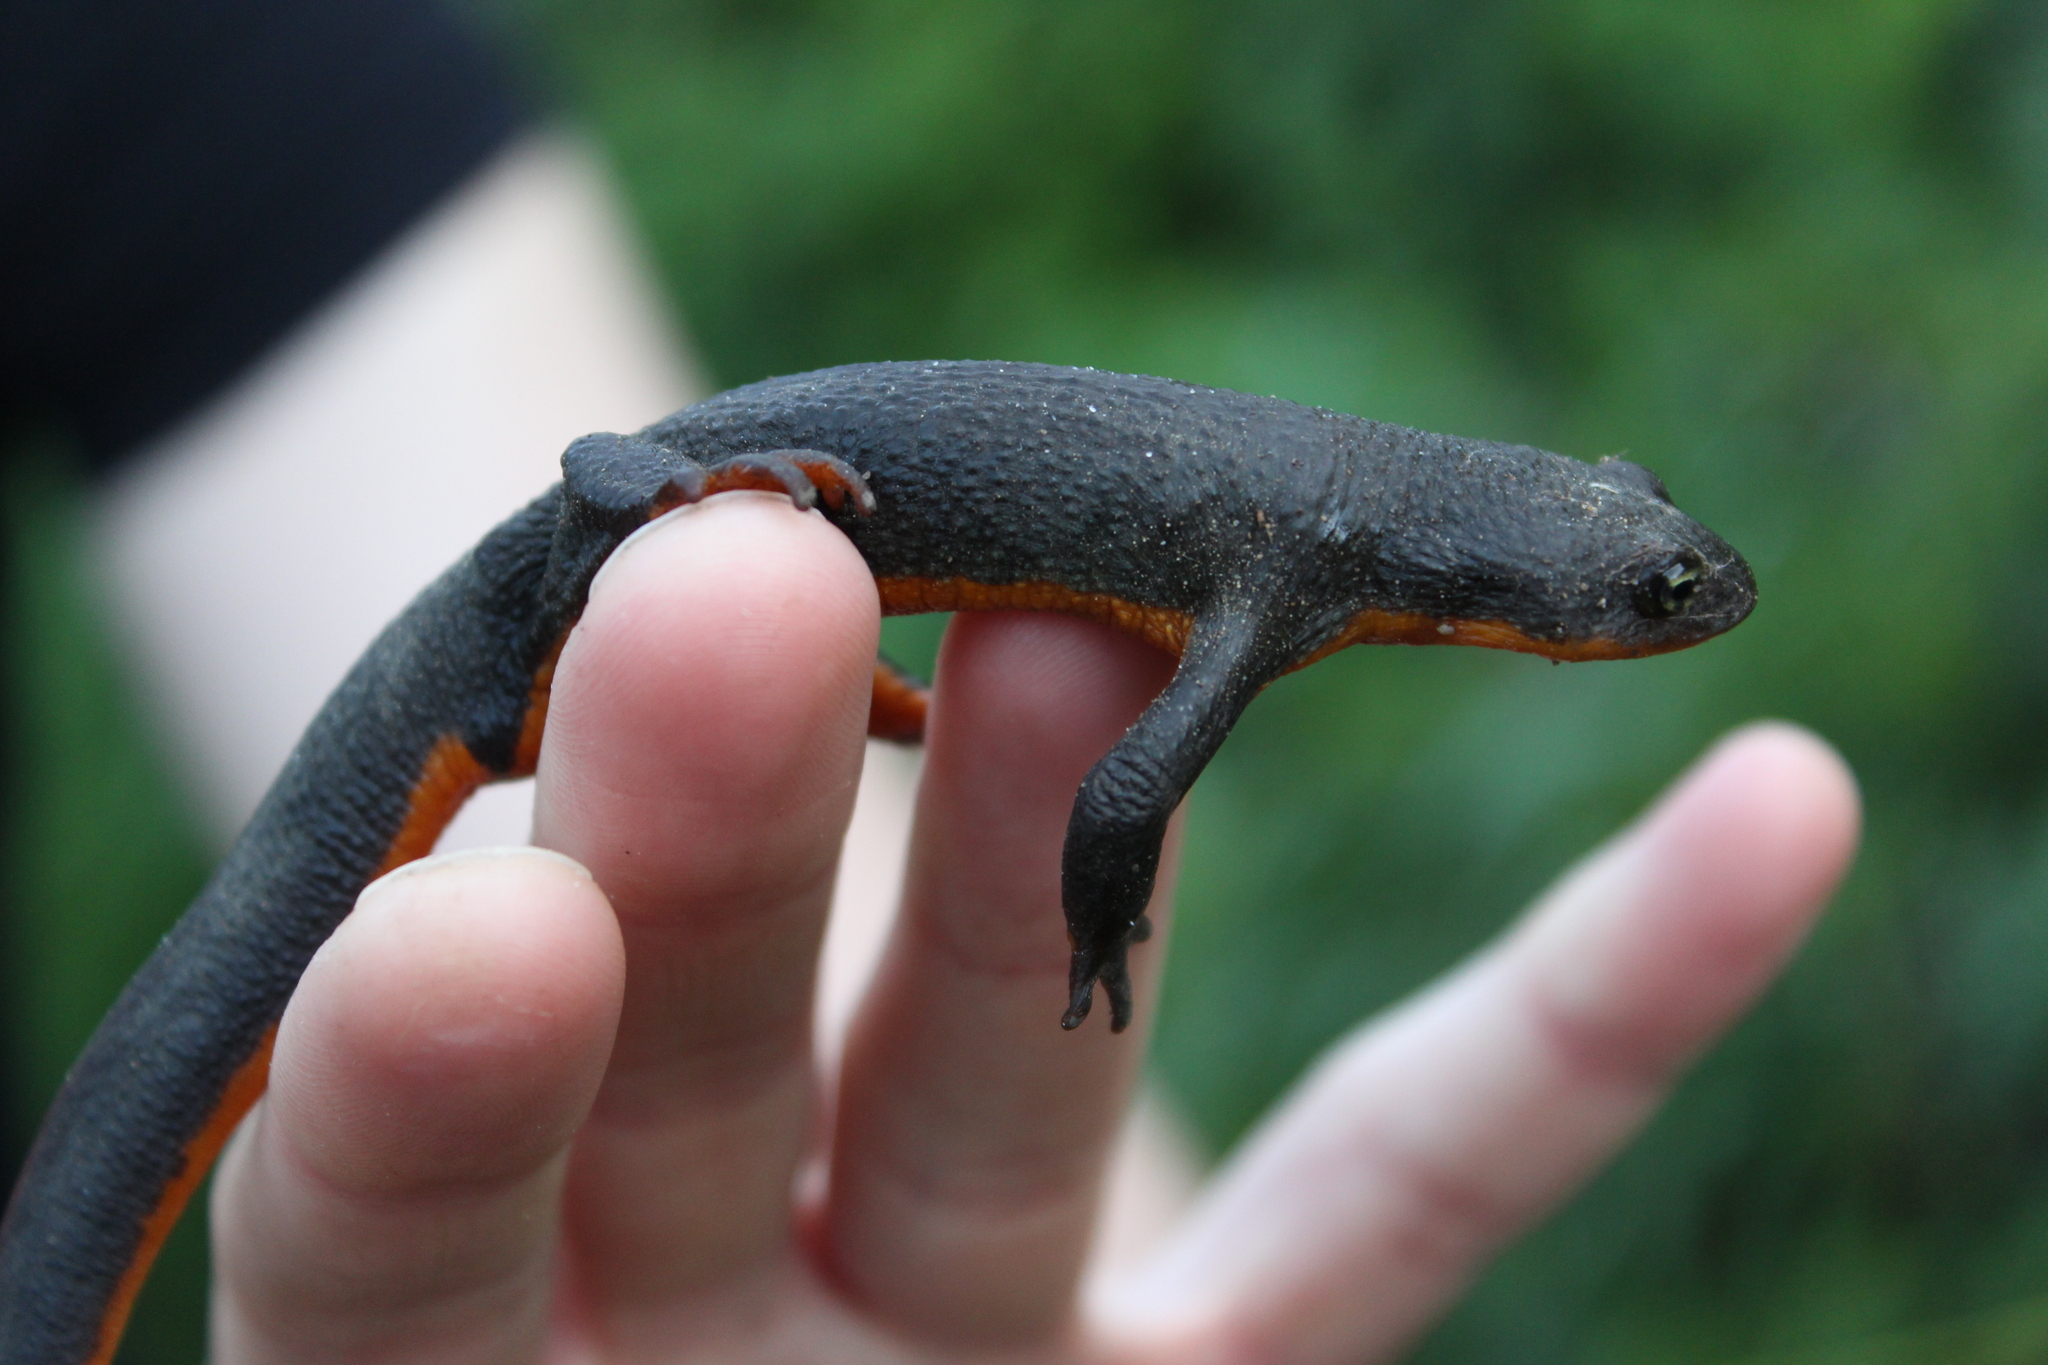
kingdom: Animalia
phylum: Chordata
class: Amphibia
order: Caudata
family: Salamandridae
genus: Taricha
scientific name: Taricha granulosa
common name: Roughskin newt
